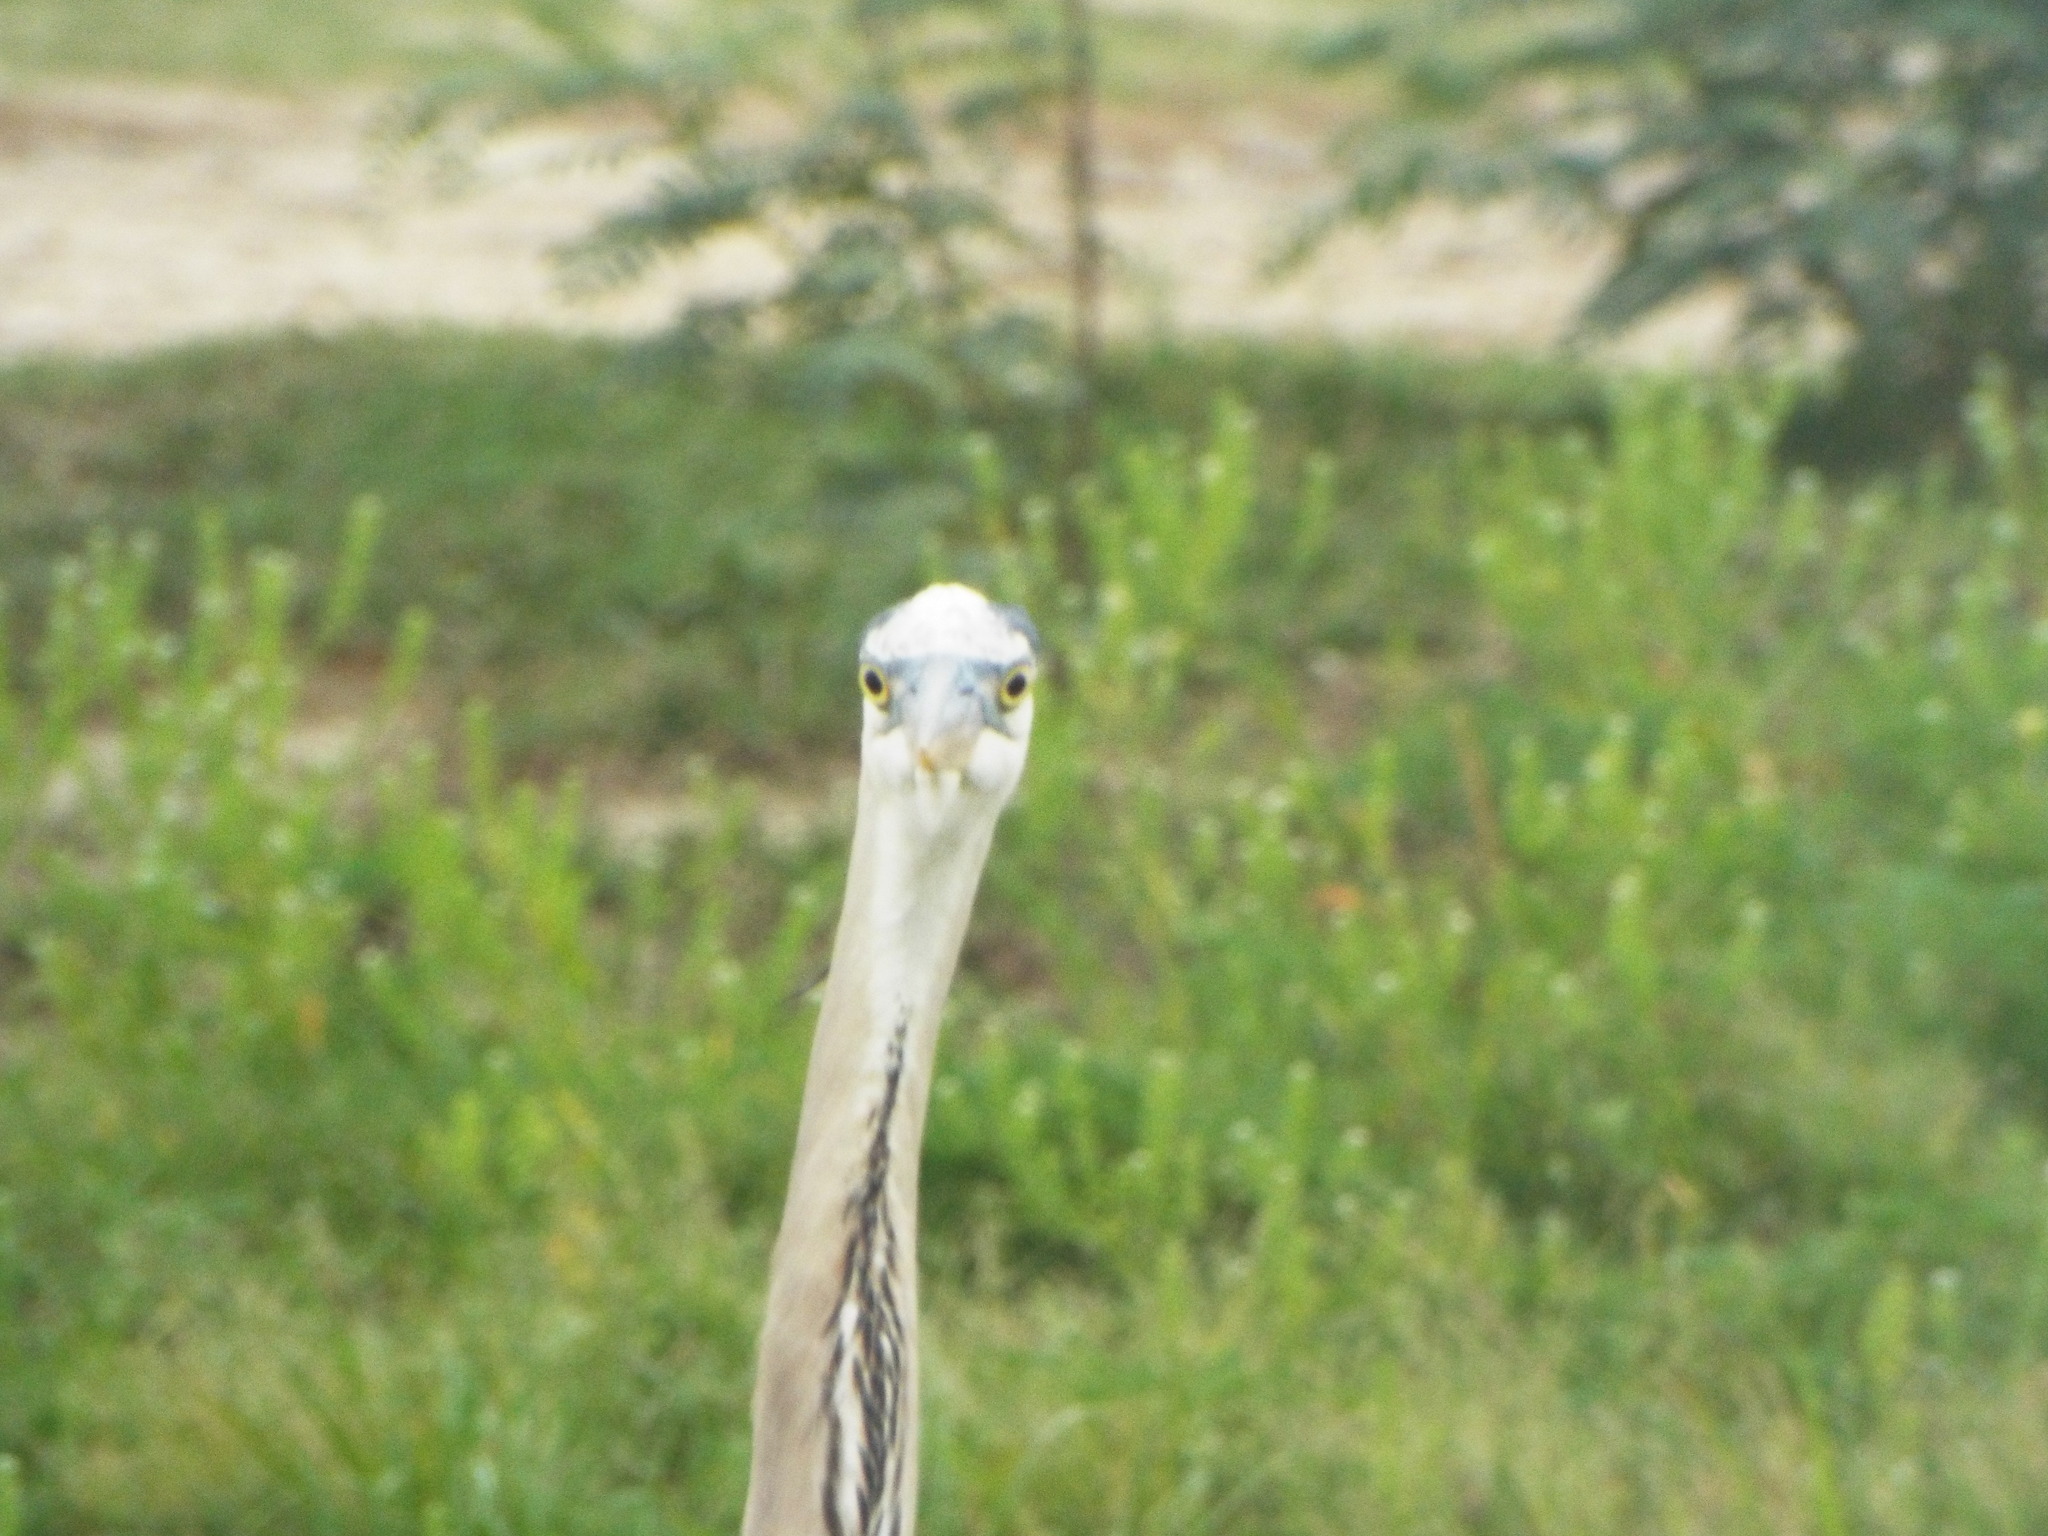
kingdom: Animalia
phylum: Chordata
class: Aves
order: Pelecaniformes
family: Ardeidae
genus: Ardea
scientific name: Ardea herodias
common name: Great blue heron
